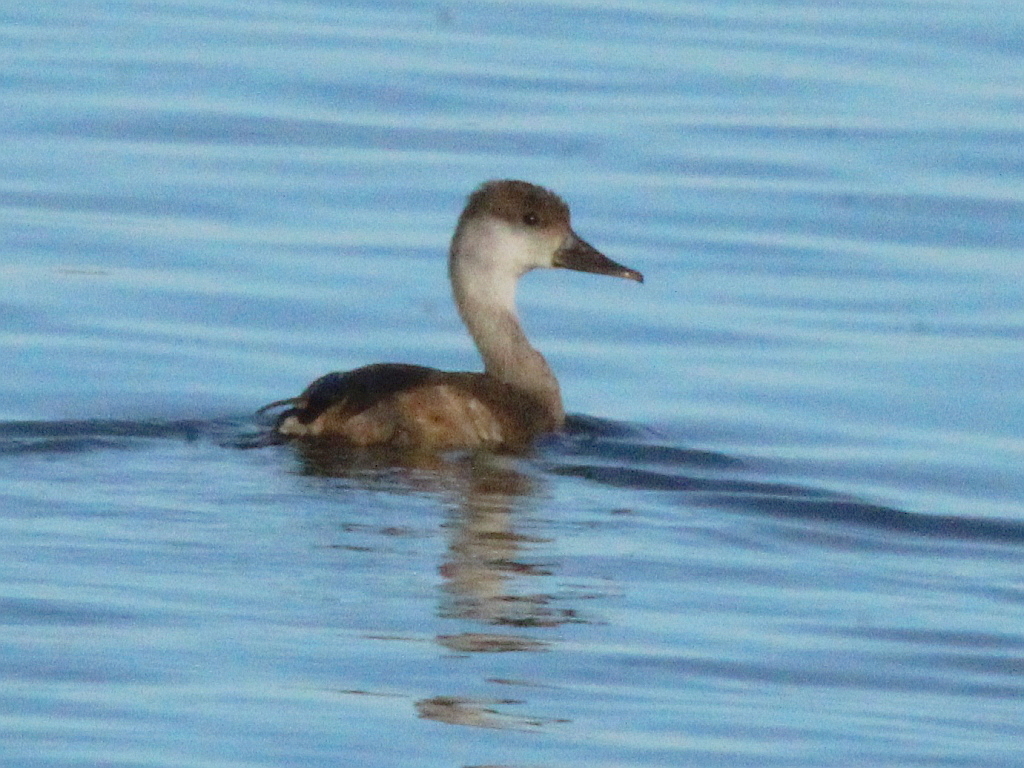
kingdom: Animalia
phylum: Chordata
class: Aves
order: Anseriformes
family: Anatidae
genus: Netta
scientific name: Netta rufina
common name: Red-crested pochard
